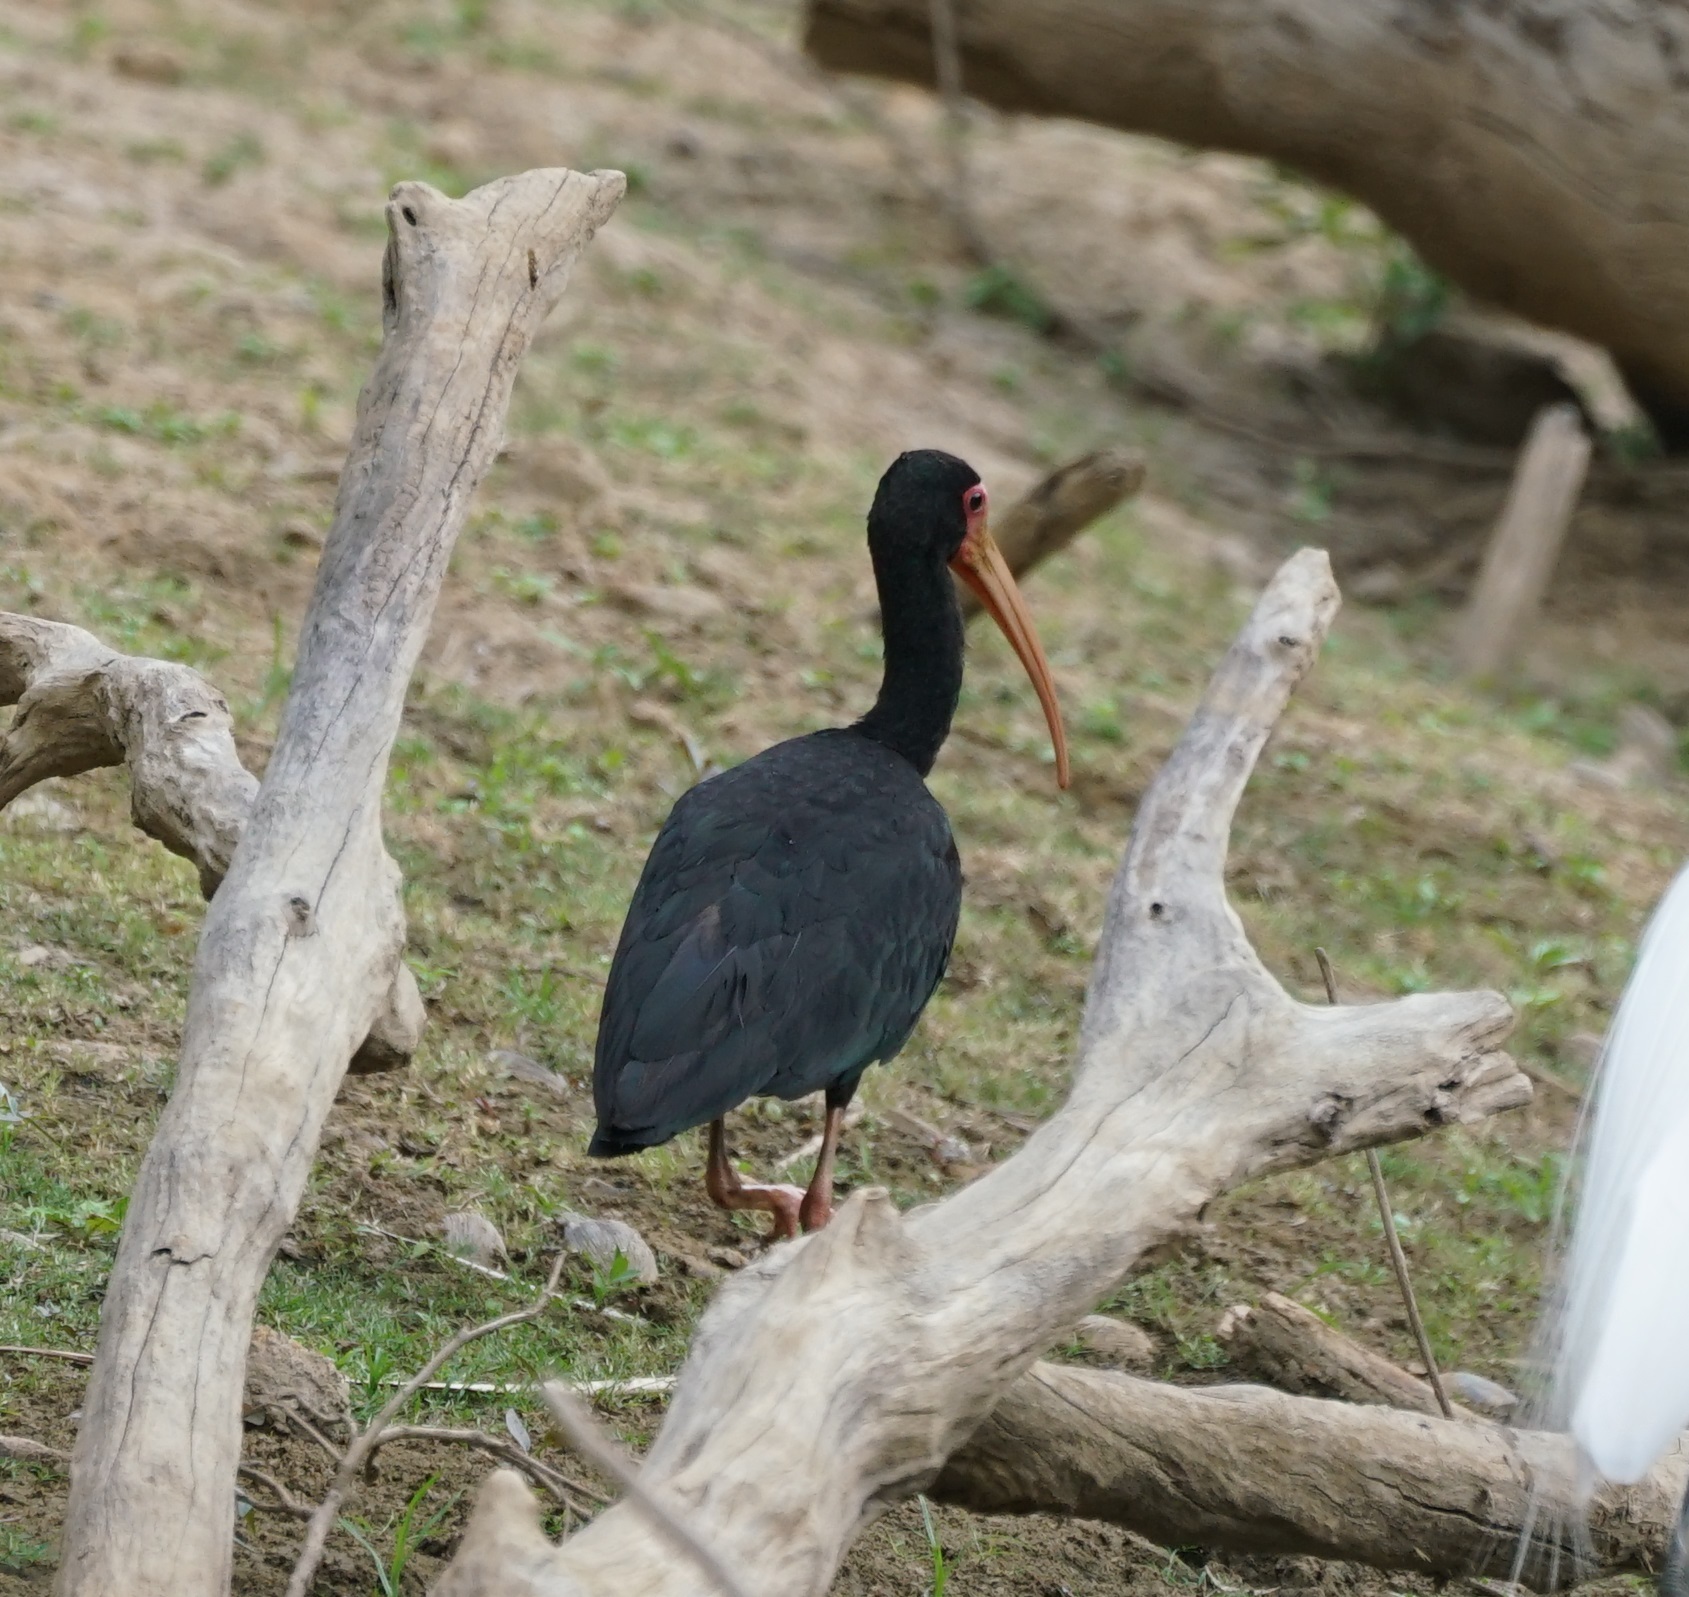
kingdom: Animalia
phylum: Chordata
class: Aves
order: Pelecaniformes
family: Threskiornithidae
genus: Phimosus
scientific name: Phimosus infuscatus
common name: Bare-faced ibis
